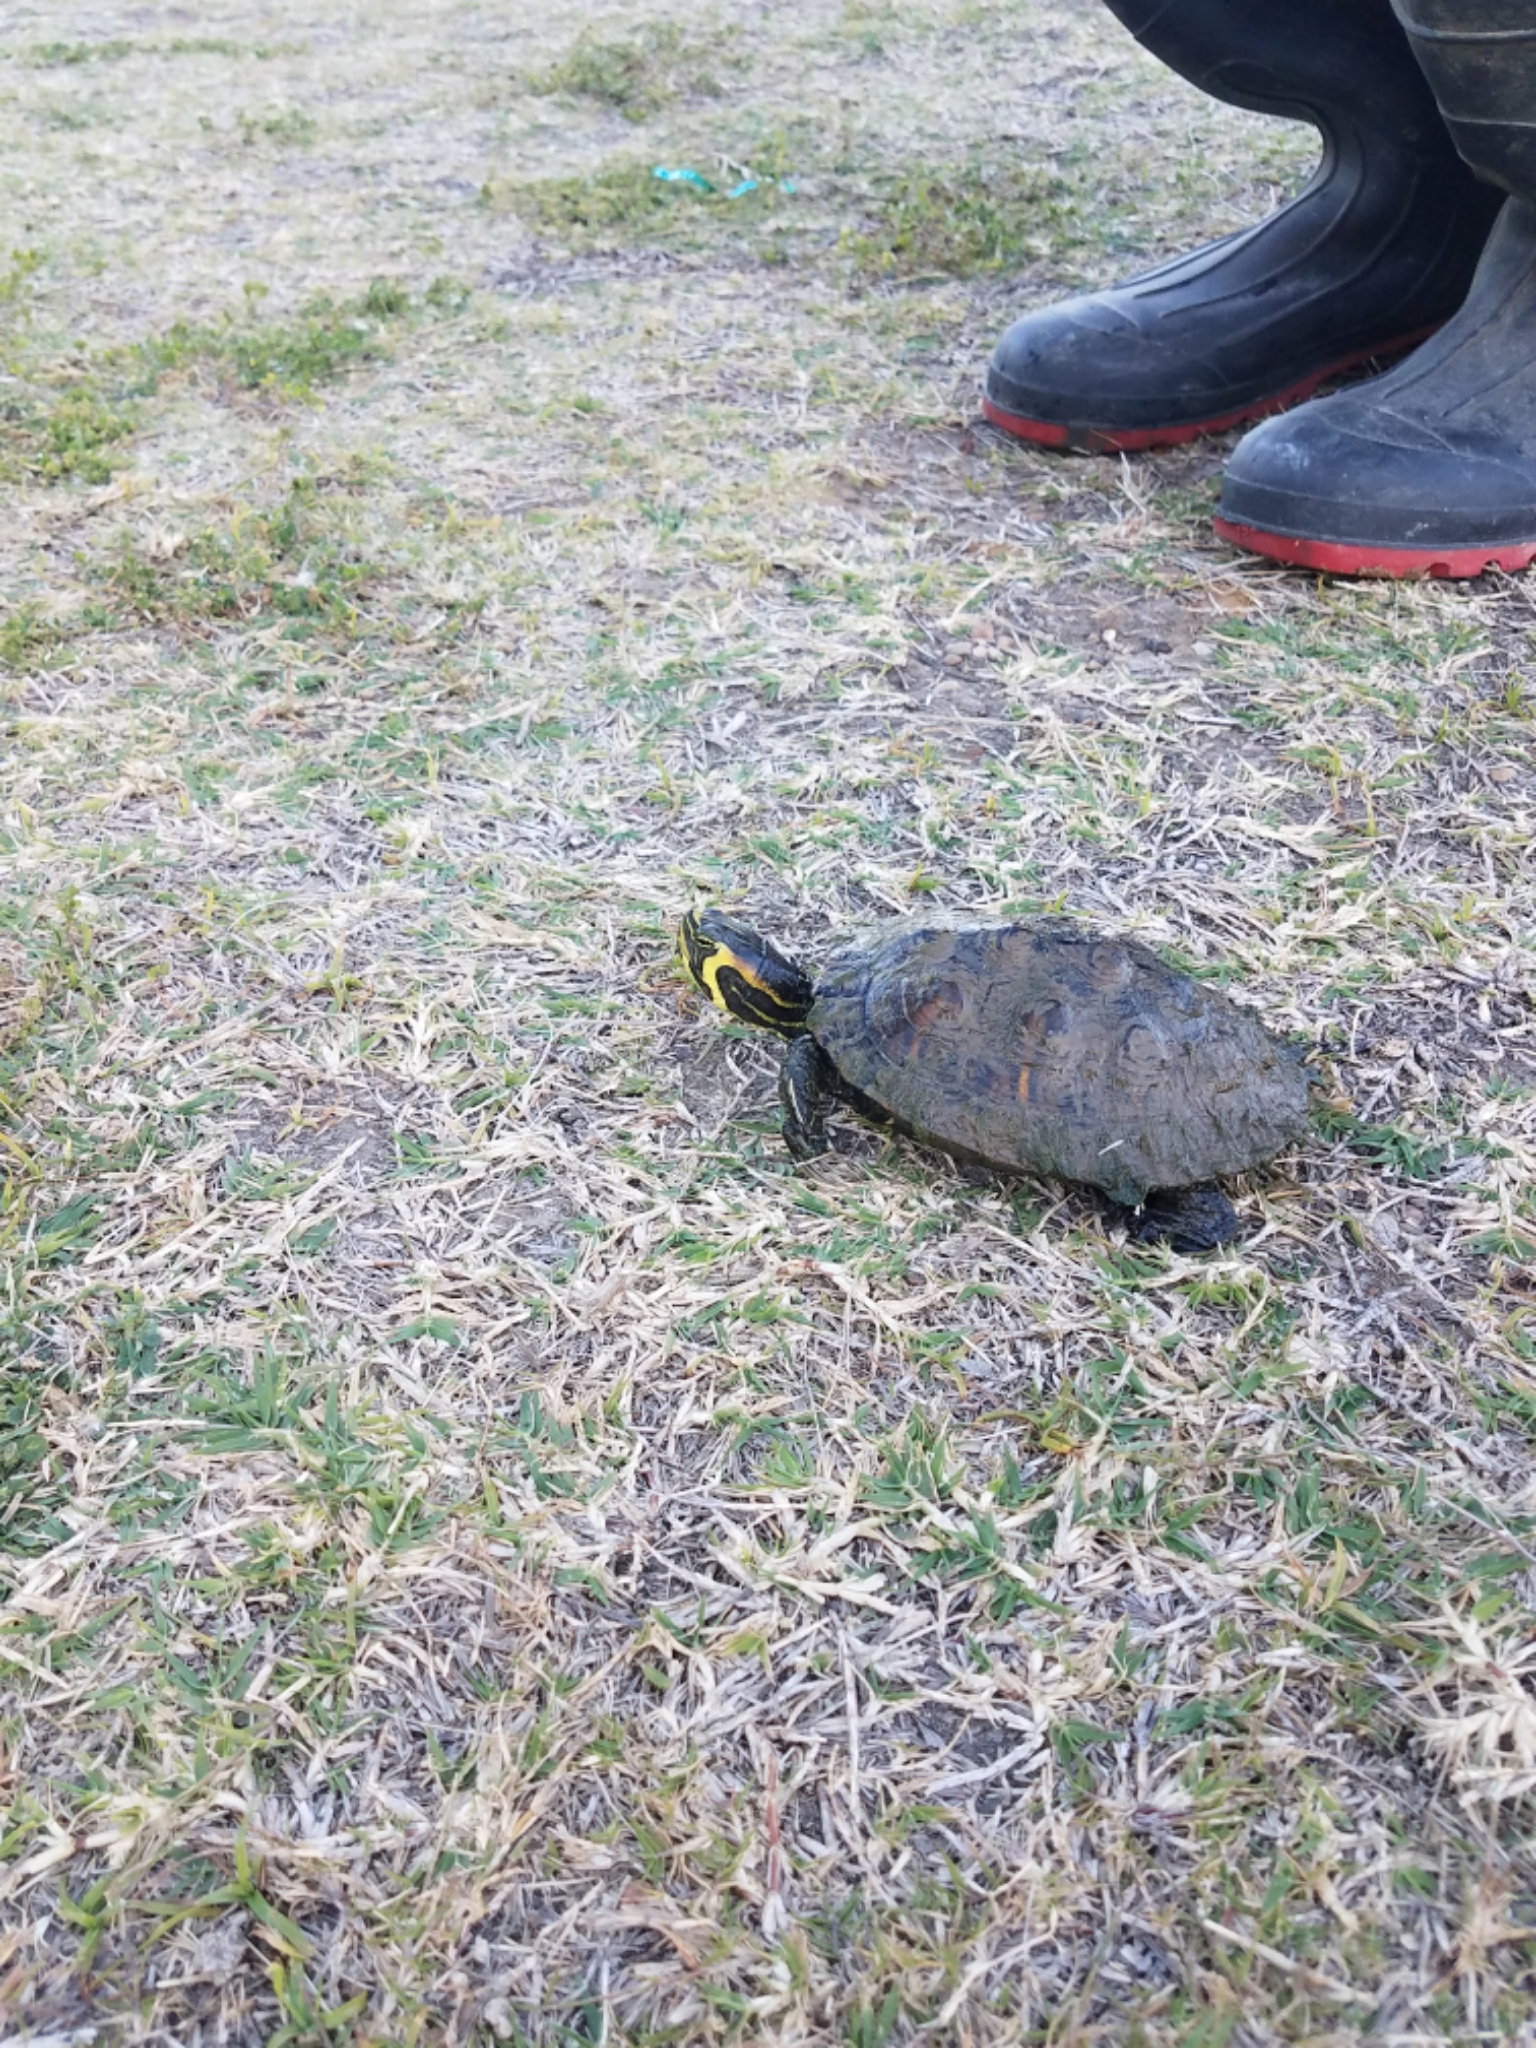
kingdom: Animalia
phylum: Chordata
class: Testudines
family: Emydidae
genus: Trachemys
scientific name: Trachemys scripta
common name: Slider
